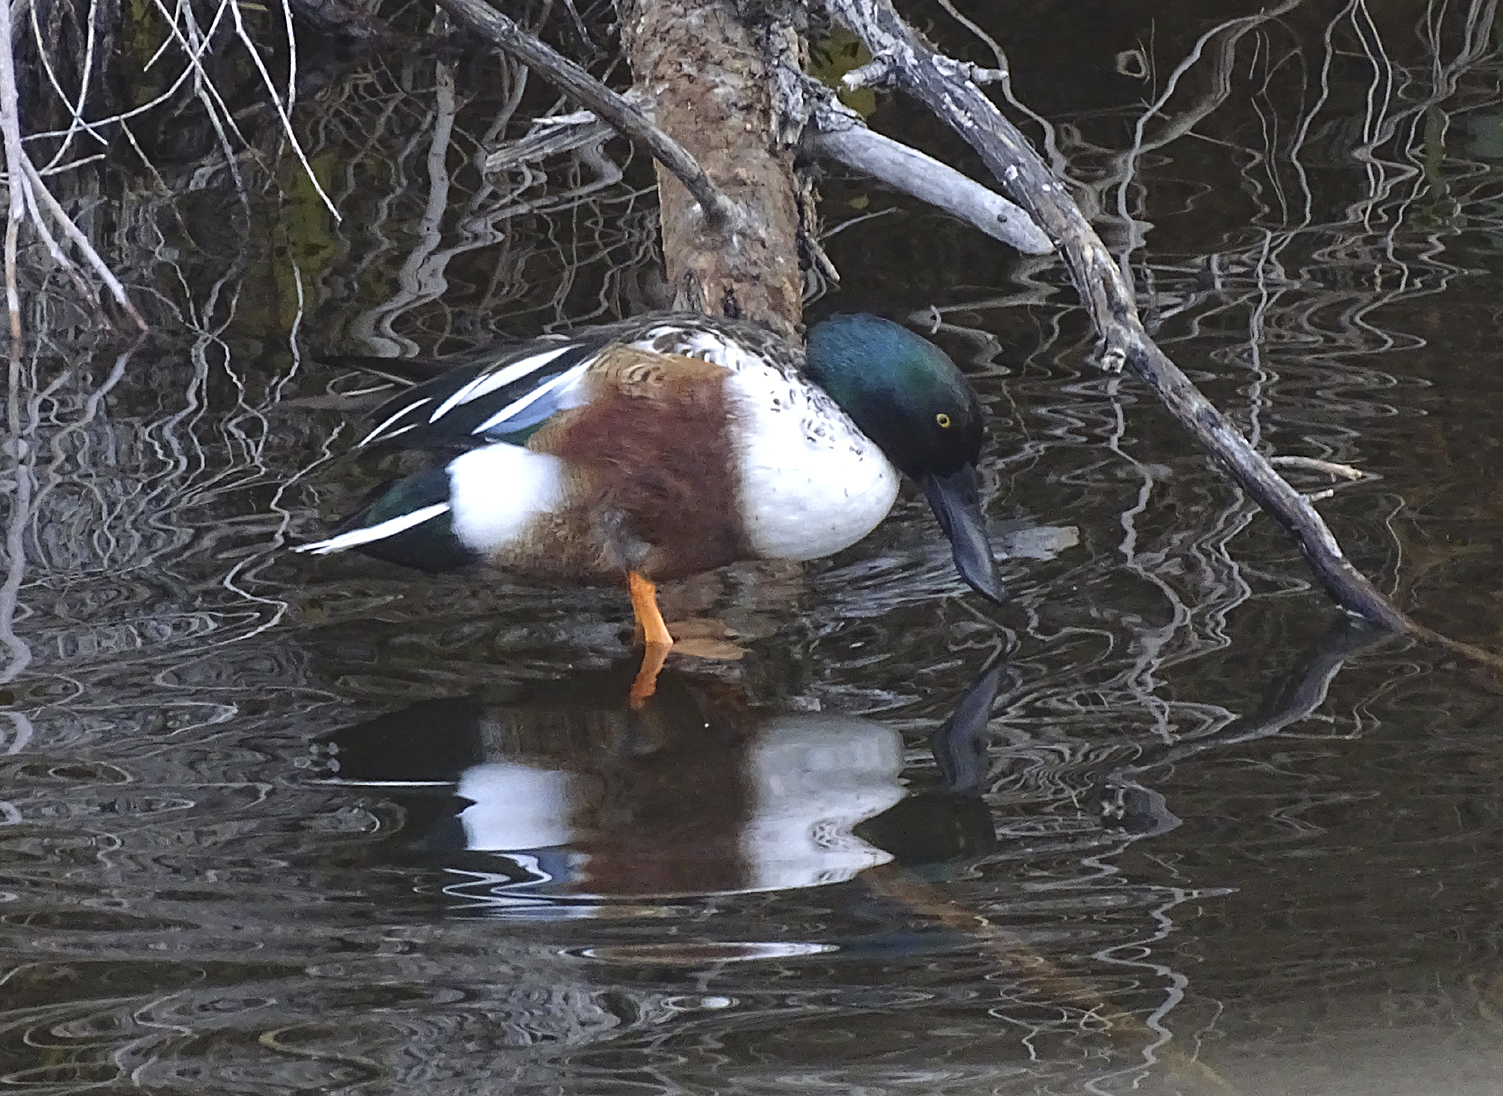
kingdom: Animalia
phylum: Chordata
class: Aves
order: Anseriformes
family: Anatidae
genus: Spatula
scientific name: Spatula clypeata
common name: Northern shoveler
